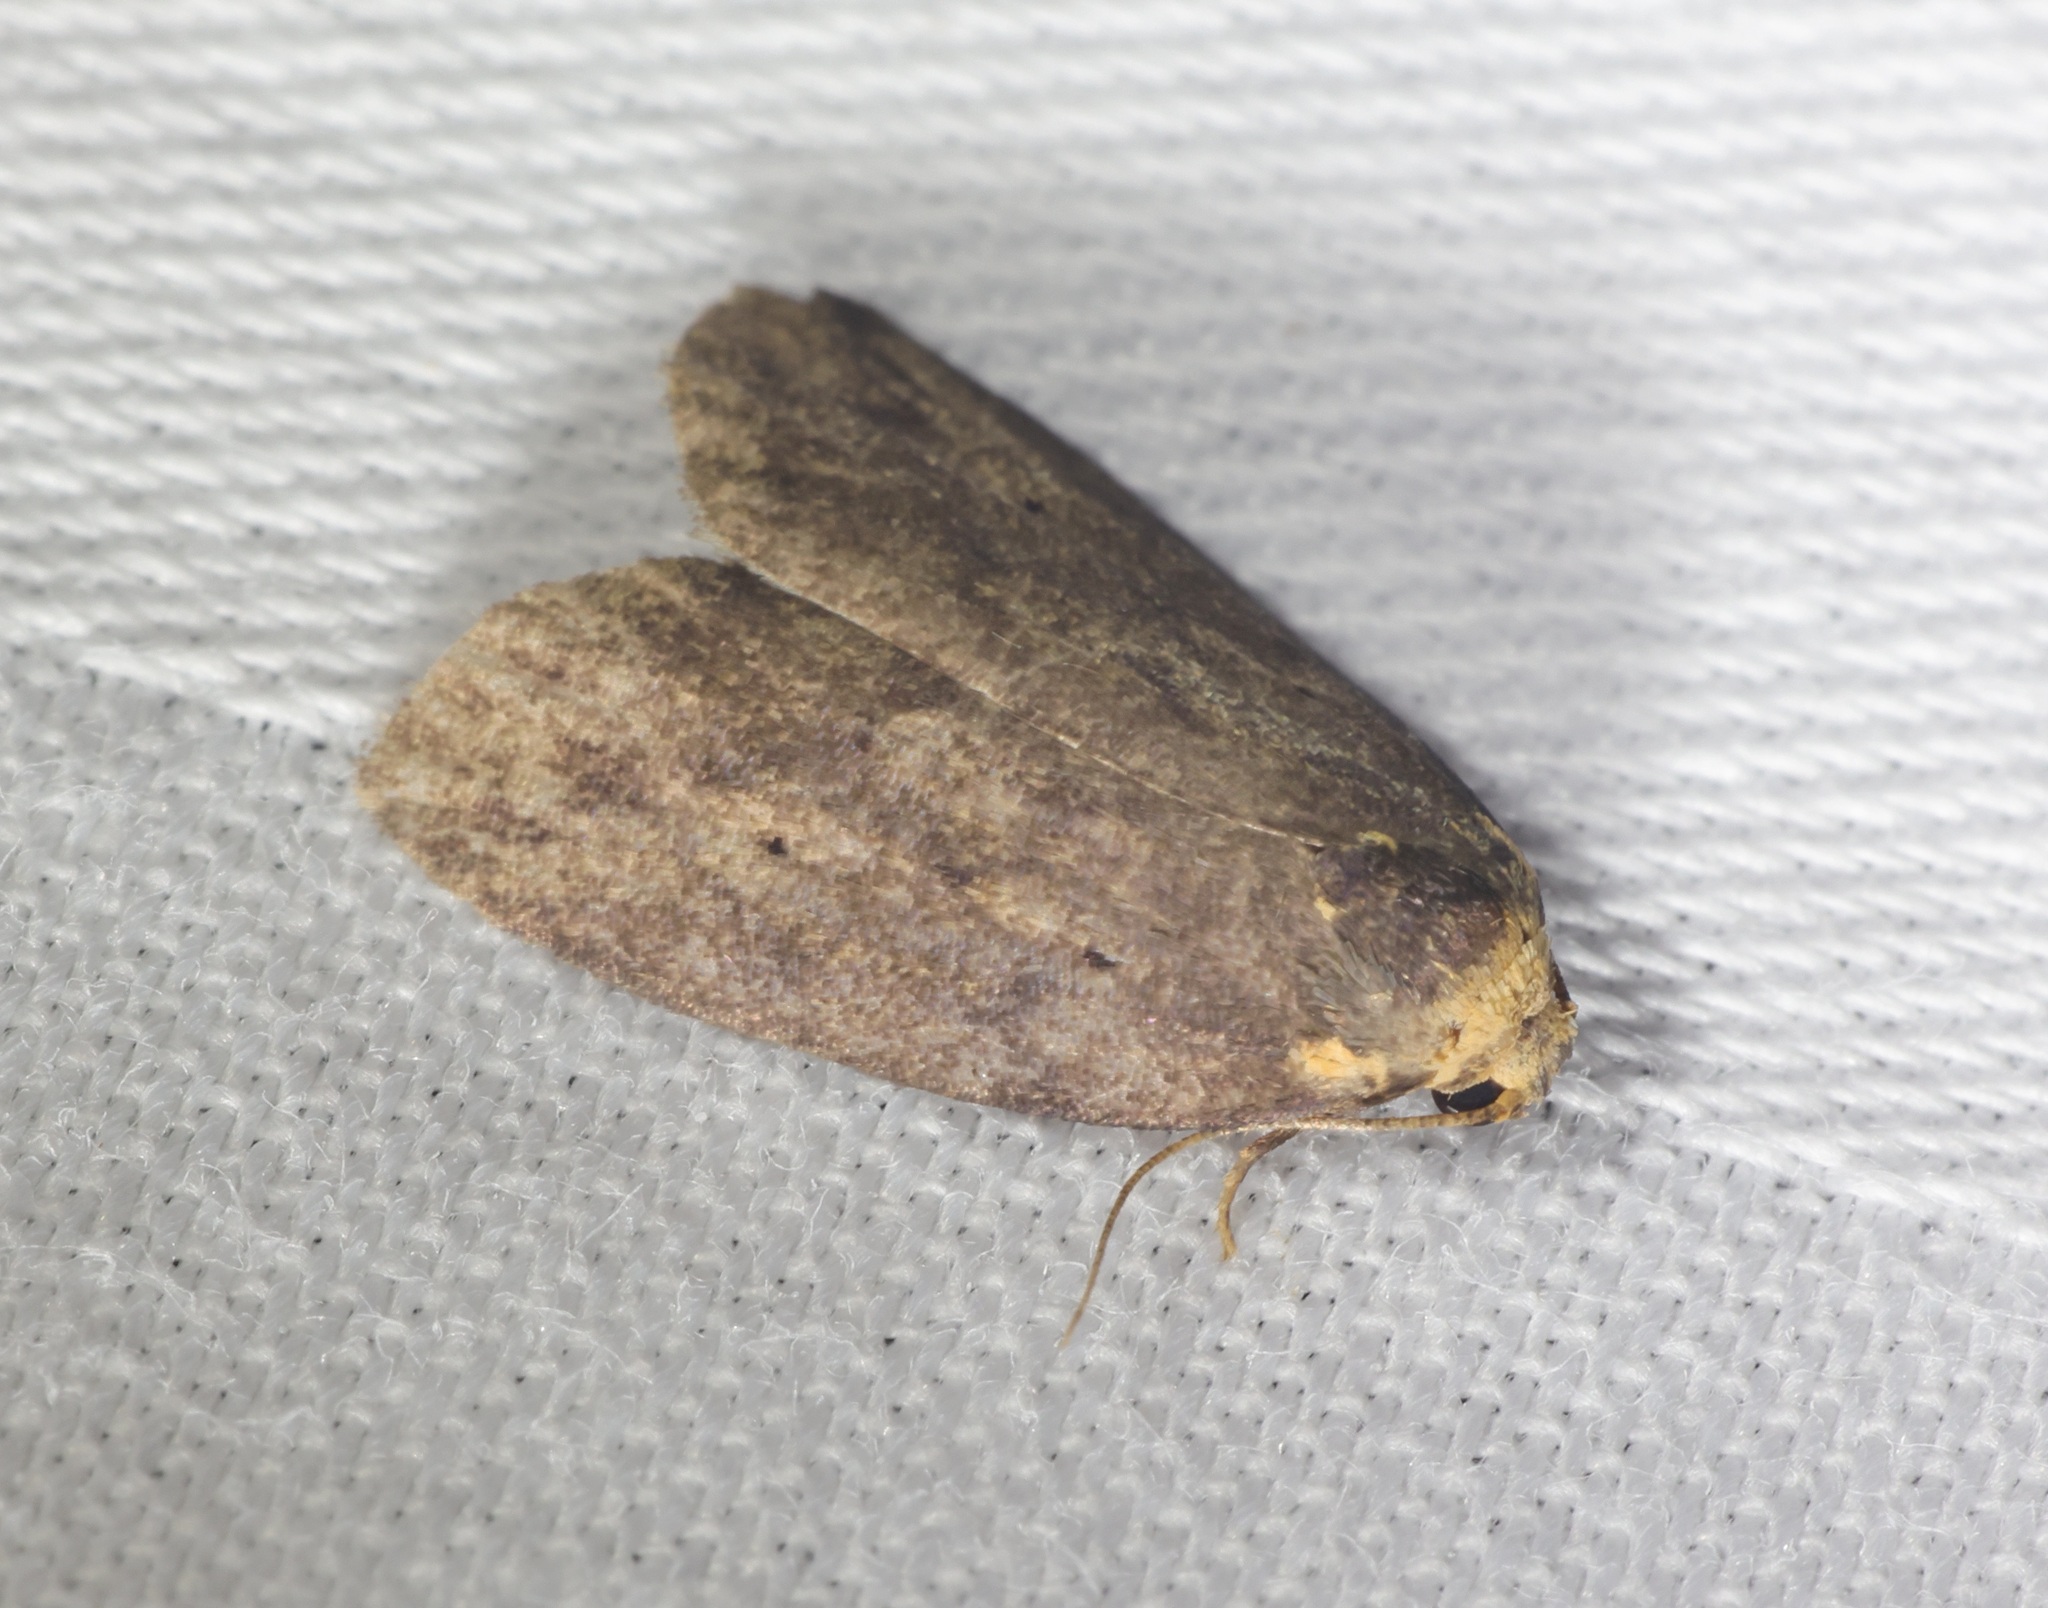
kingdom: Animalia
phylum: Arthropoda
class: Insecta
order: Lepidoptera
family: Erebidae
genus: Eugoa
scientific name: Eugoa brunnea
